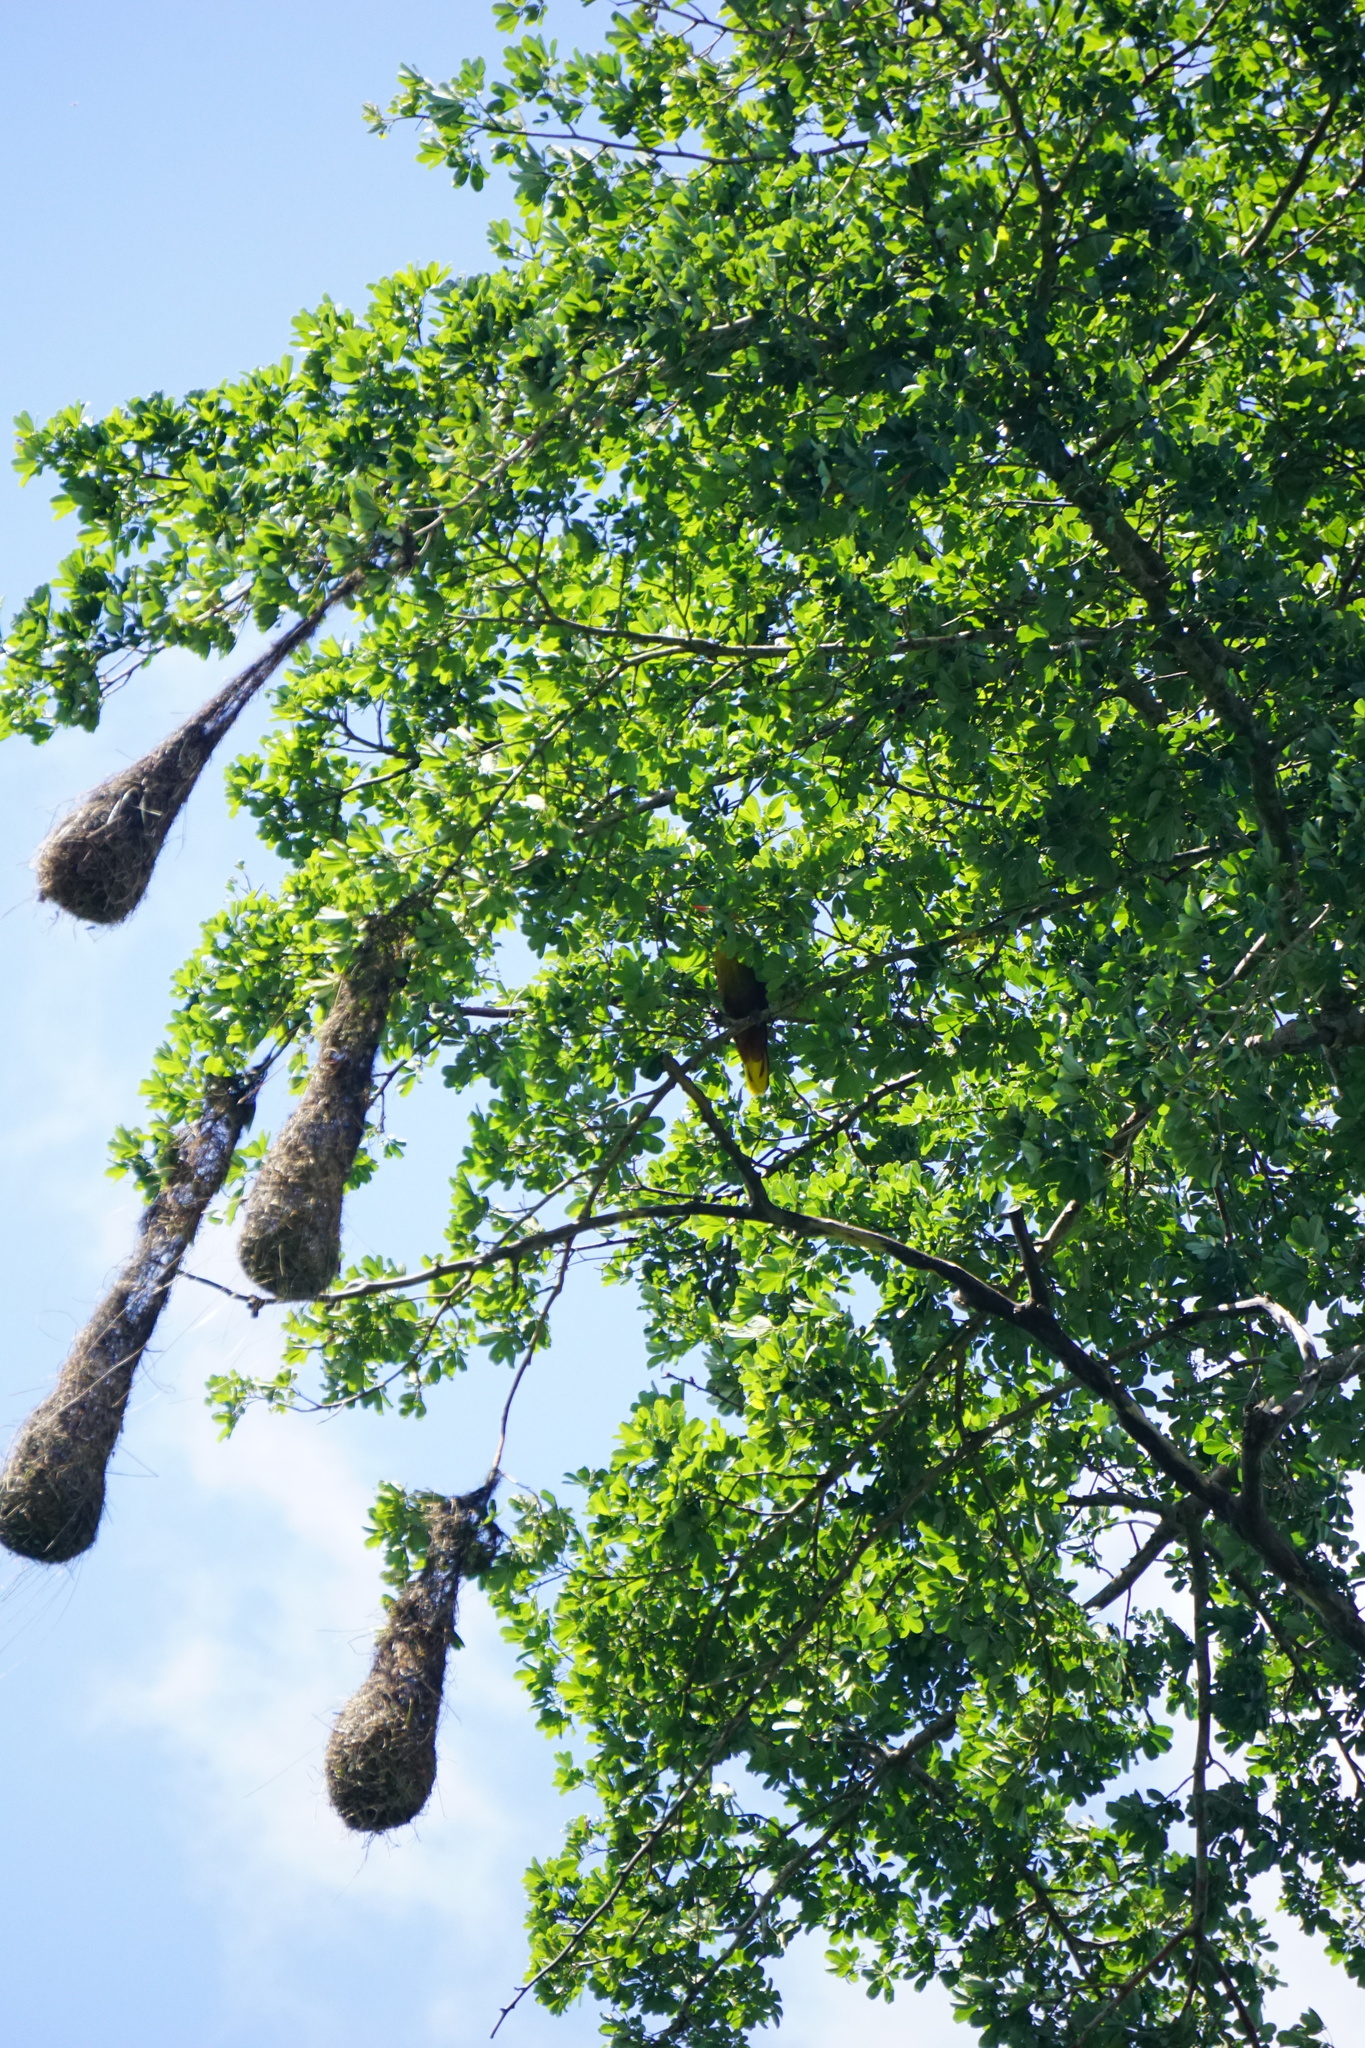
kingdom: Animalia
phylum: Chordata
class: Aves
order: Passeriformes
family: Icteridae
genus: Psarocolius
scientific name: Psarocolius viridis
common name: Green oropendola
